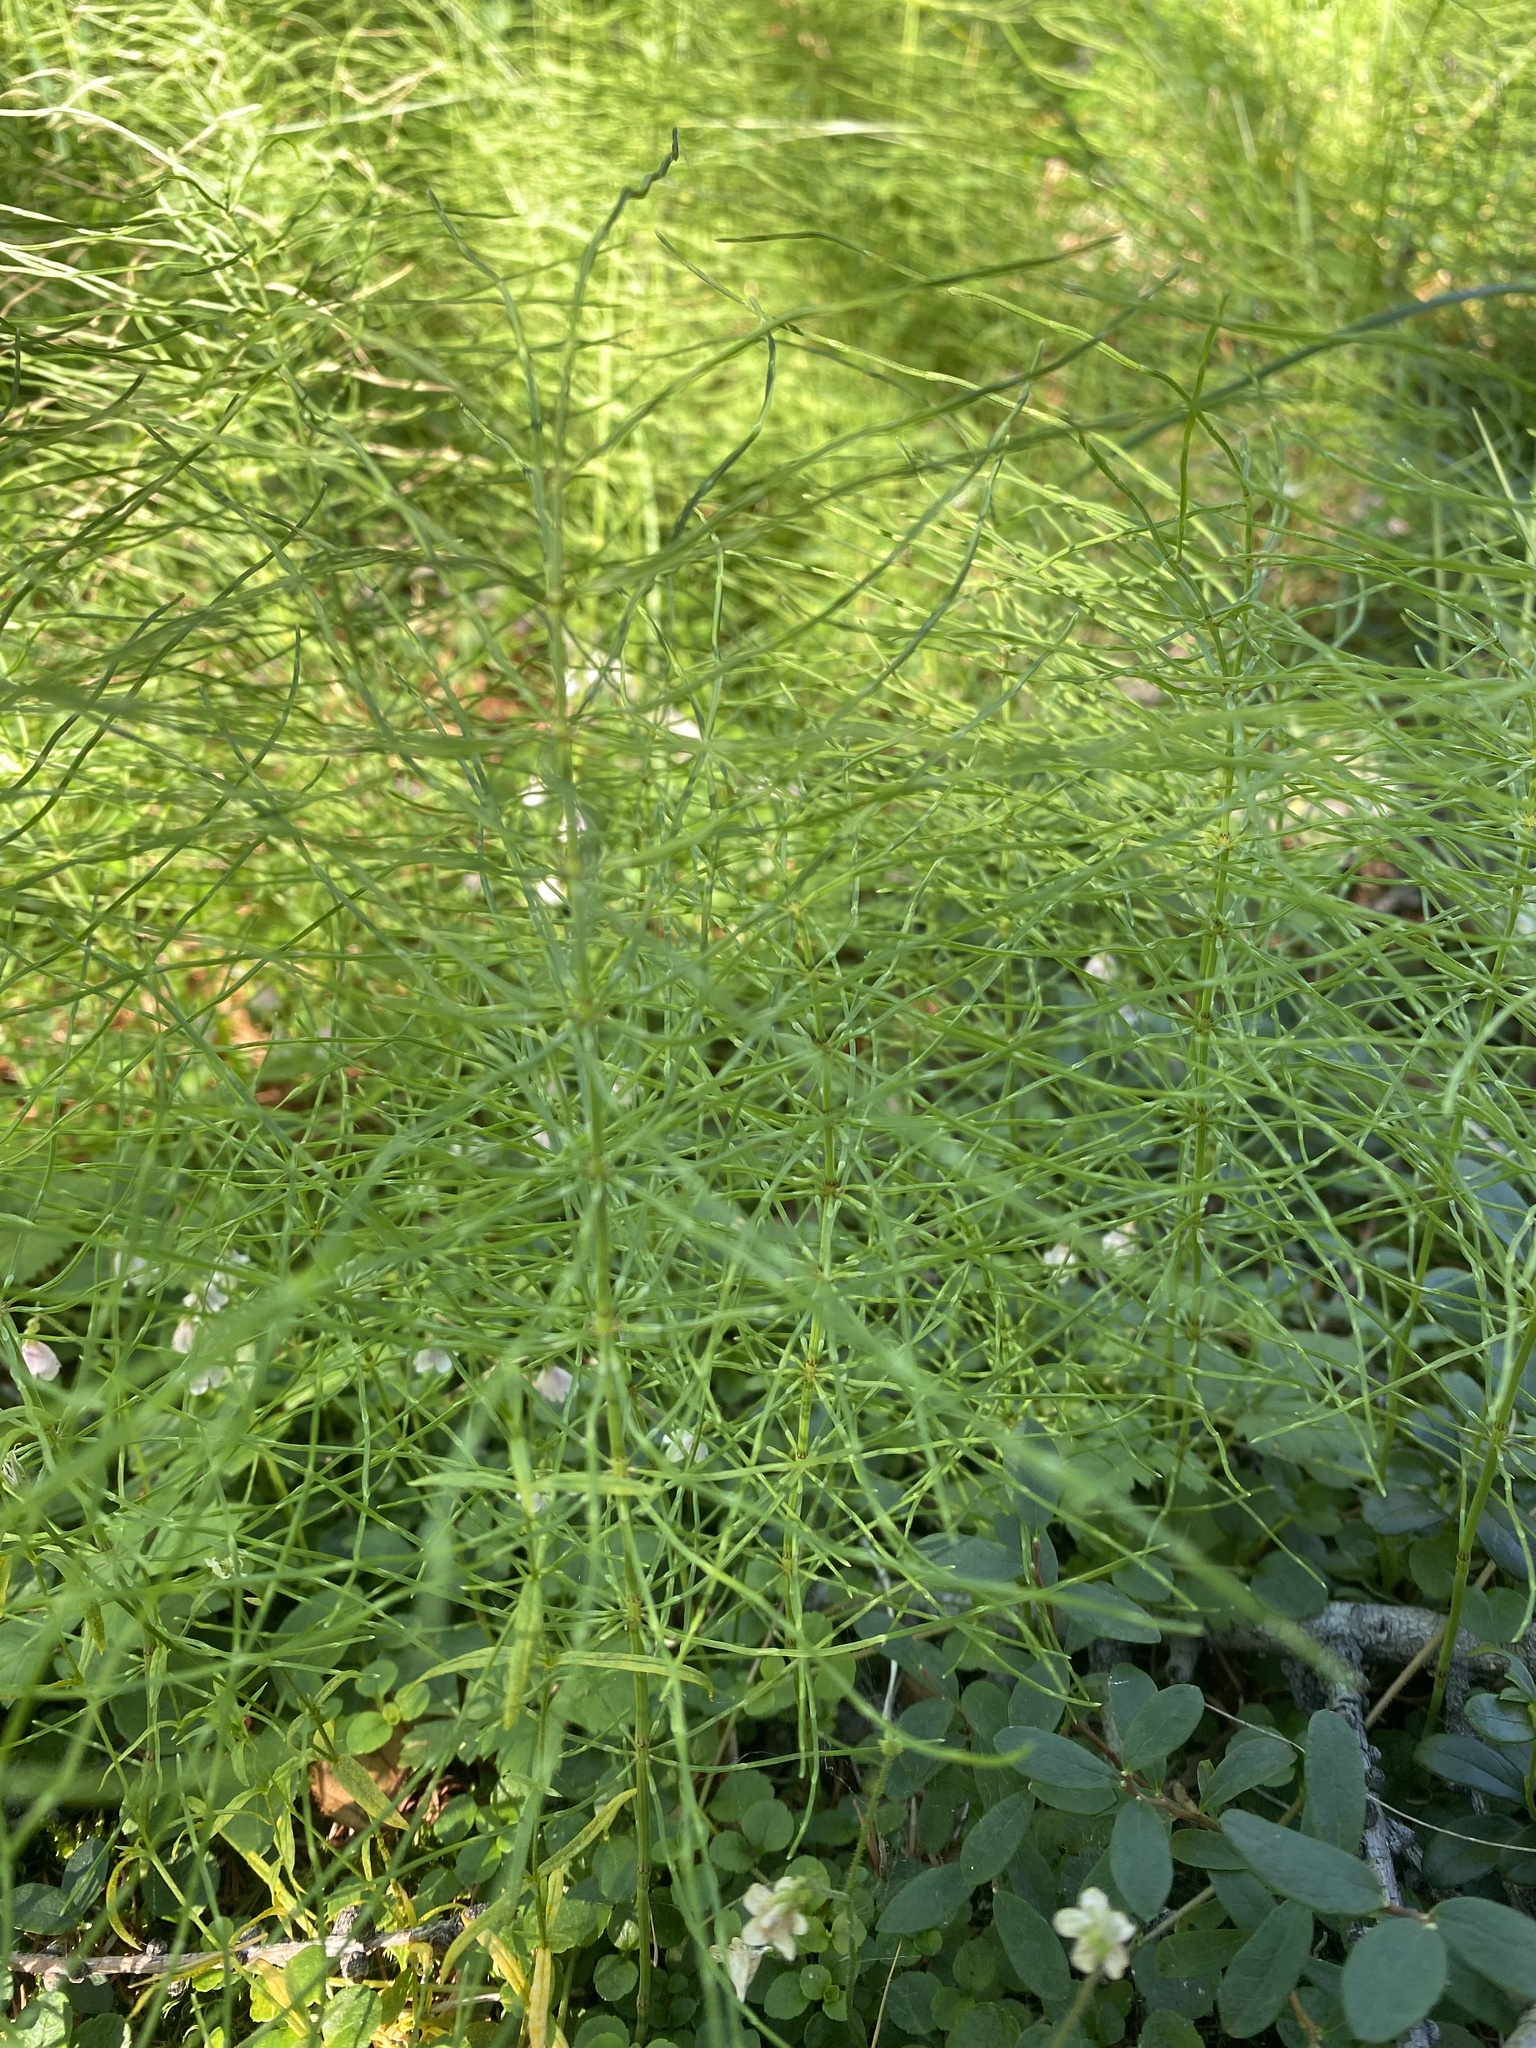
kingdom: Plantae
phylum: Tracheophyta
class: Polypodiopsida
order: Equisetales
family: Equisetaceae
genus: Equisetum
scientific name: Equisetum pratense
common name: Meadow horsetail
